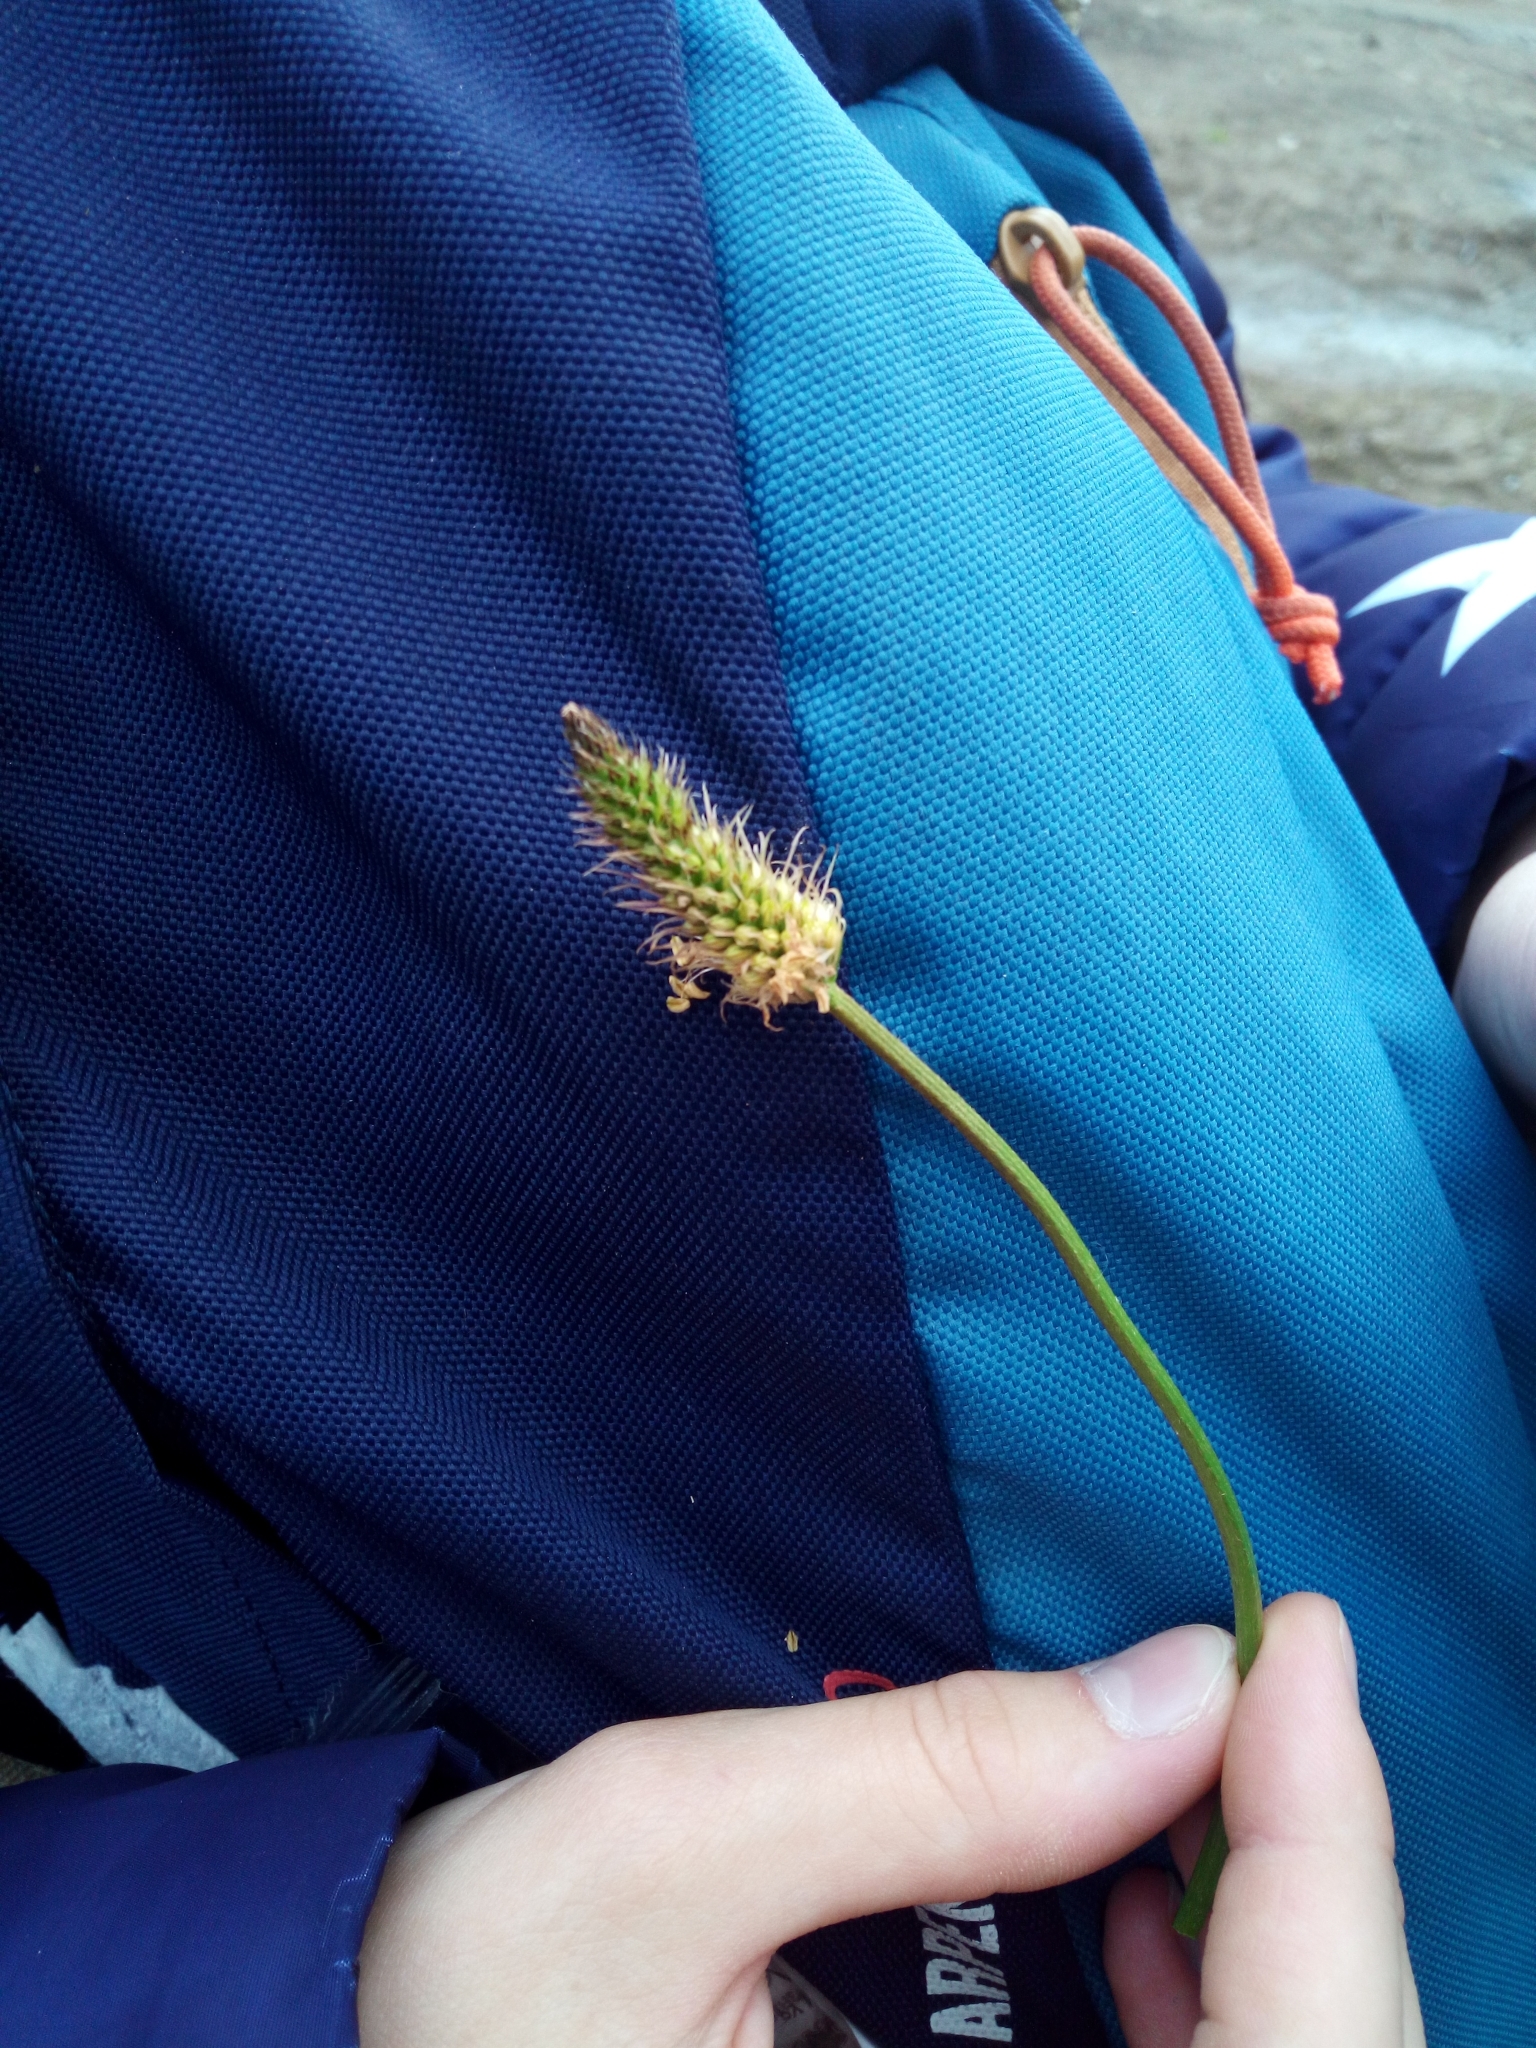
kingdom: Plantae
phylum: Tracheophyta
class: Magnoliopsida
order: Lamiales
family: Plantaginaceae
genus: Plantago
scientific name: Plantago lanceolata
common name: Ribwort plantain
